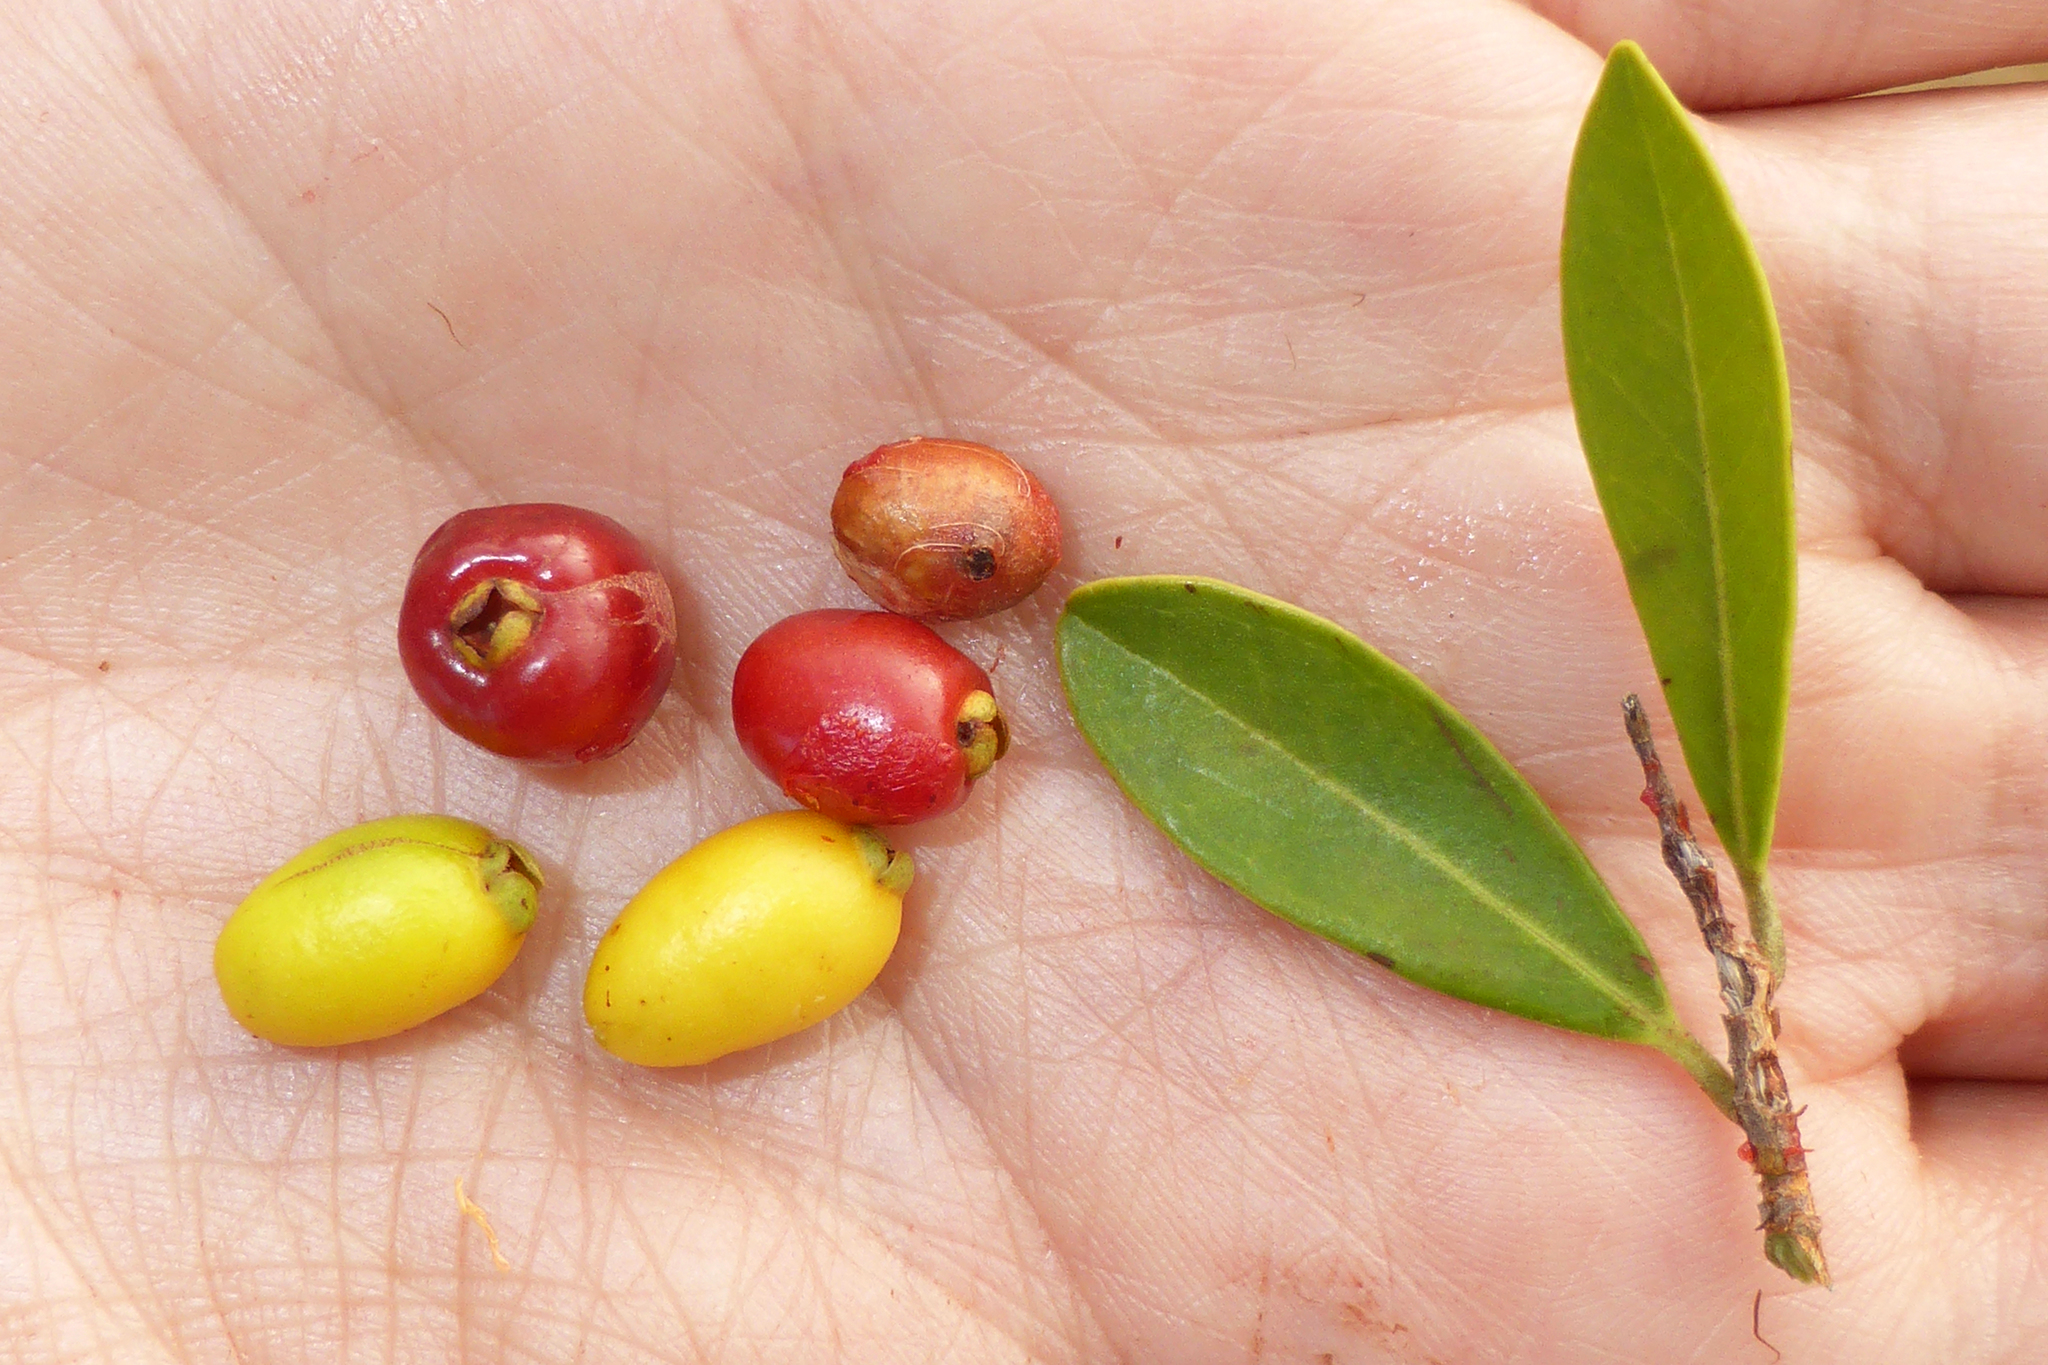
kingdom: Plantae
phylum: Tracheophyta
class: Magnoliopsida
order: Myrtales
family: Myrtaceae
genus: Eugenia
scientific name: Eugenia punicifolia
